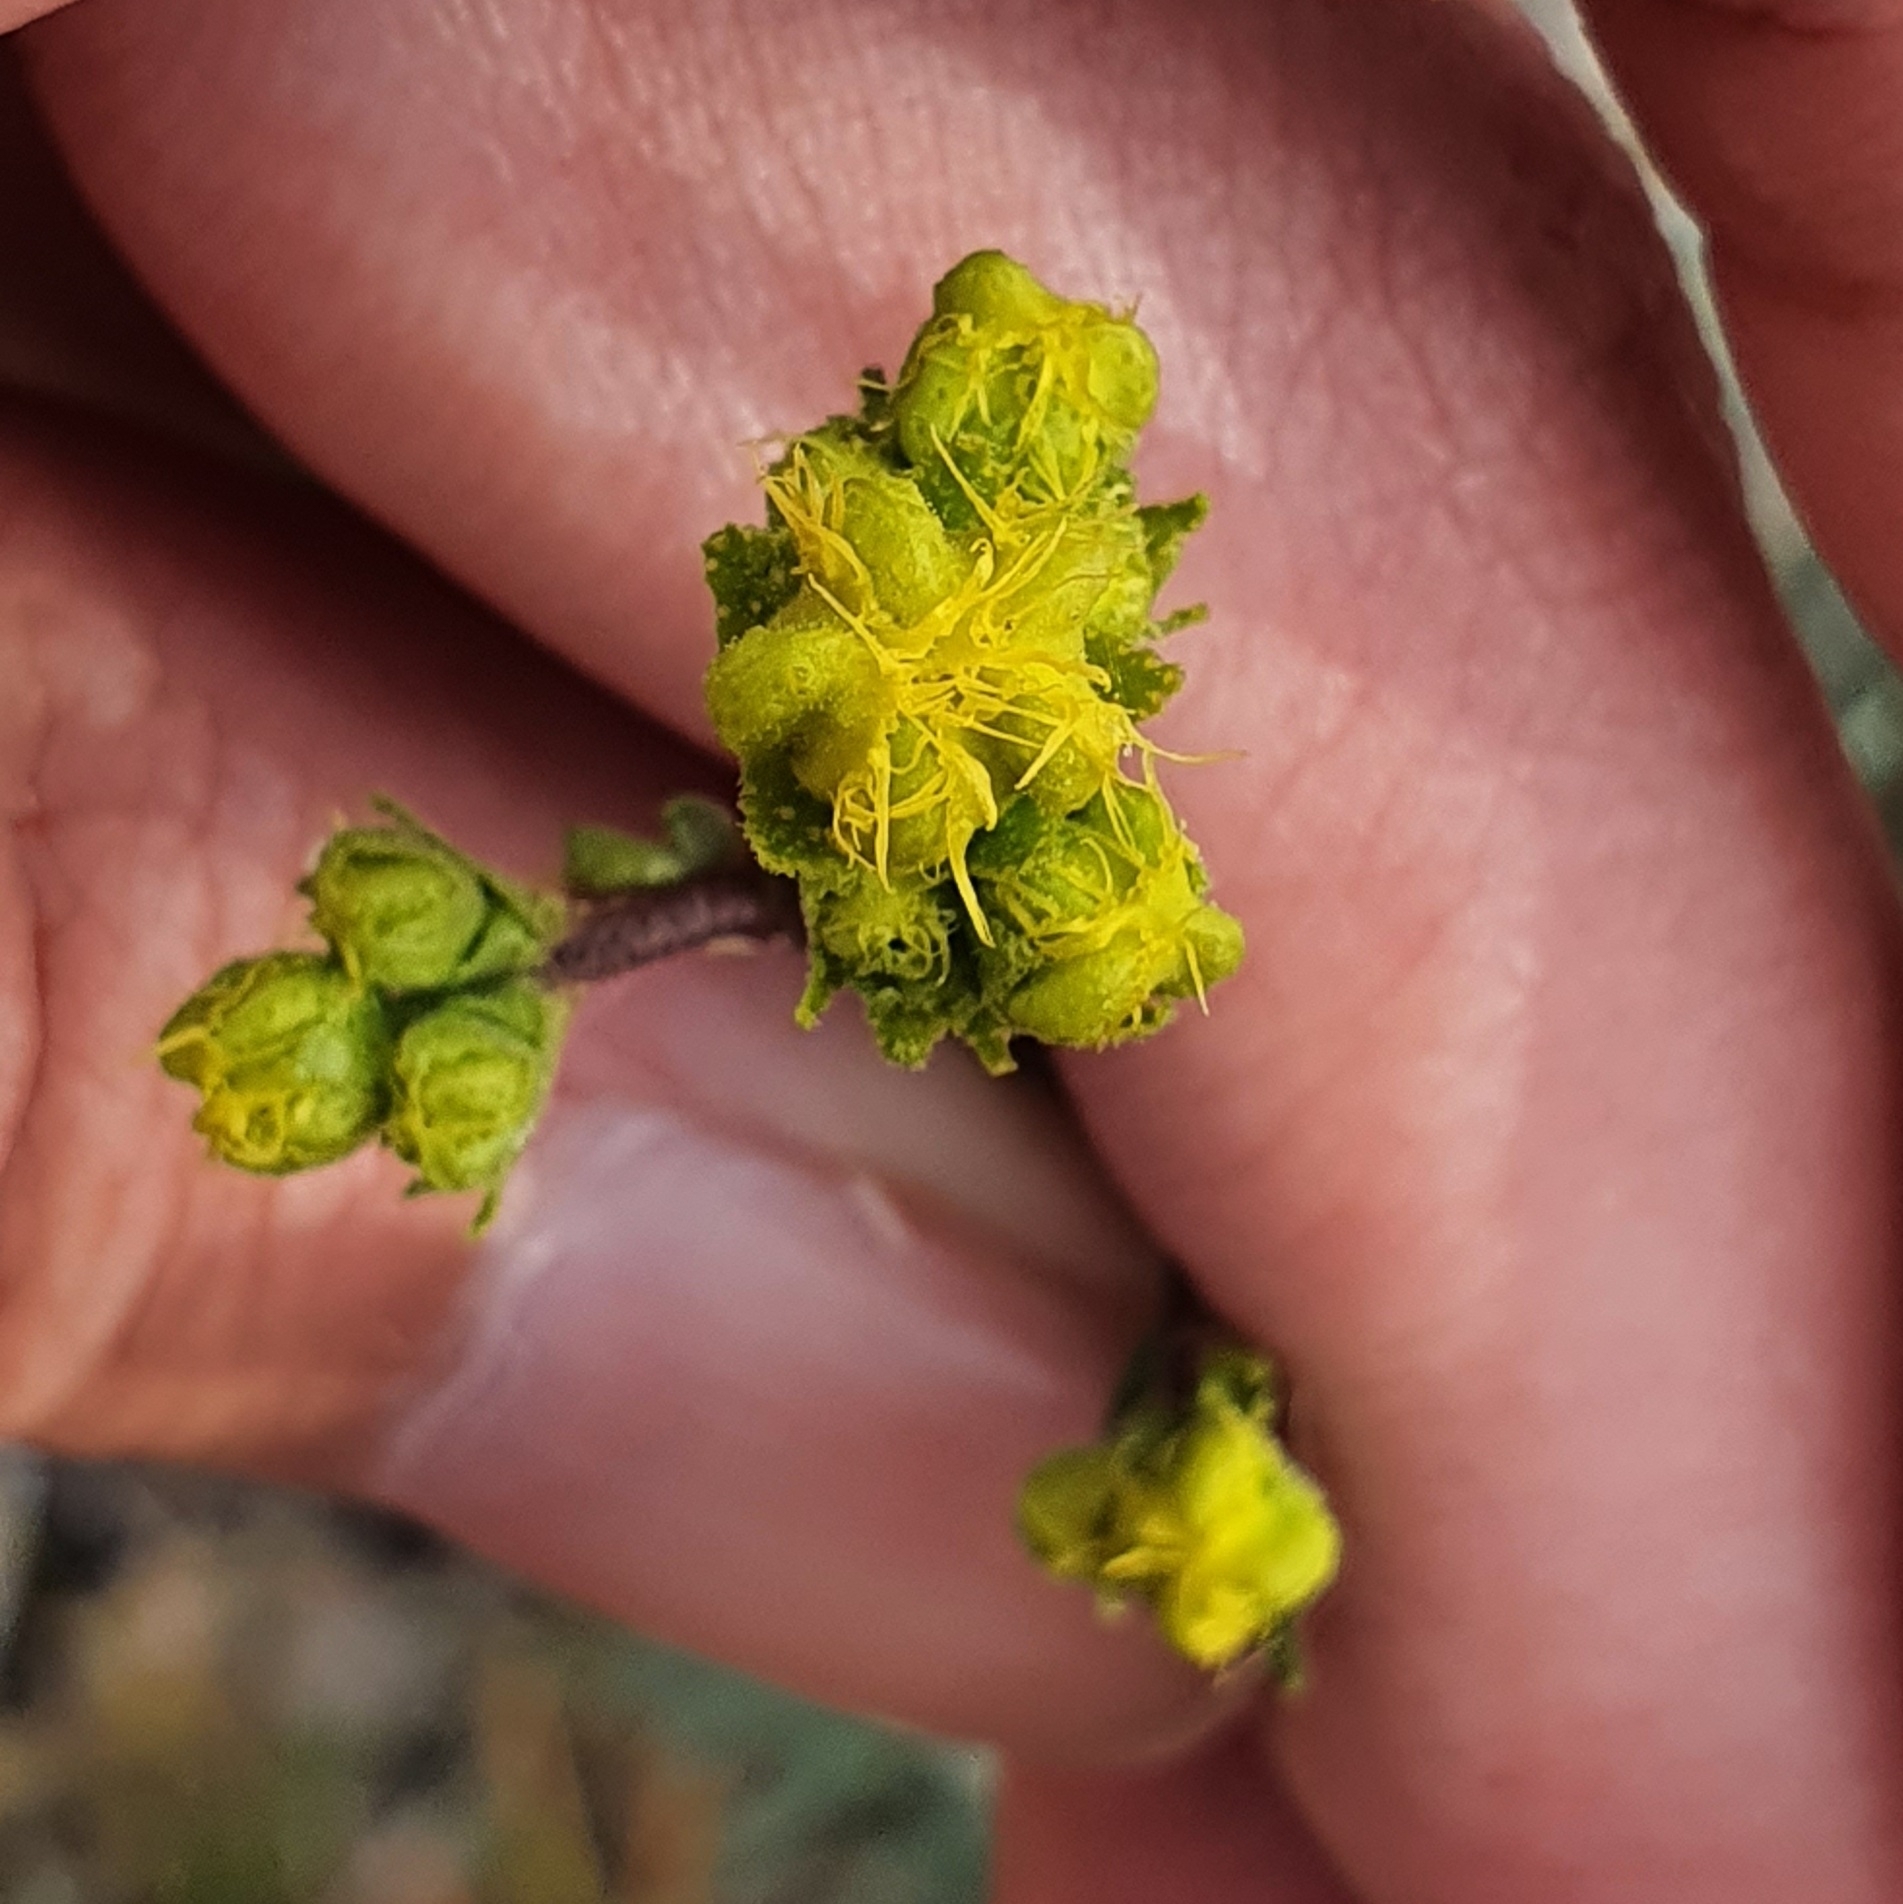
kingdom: Plantae
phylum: Tracheophyta
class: Magnoliopsida
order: Sapindales
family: Rutaceae
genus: Ruta
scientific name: Ruta angustifolia
